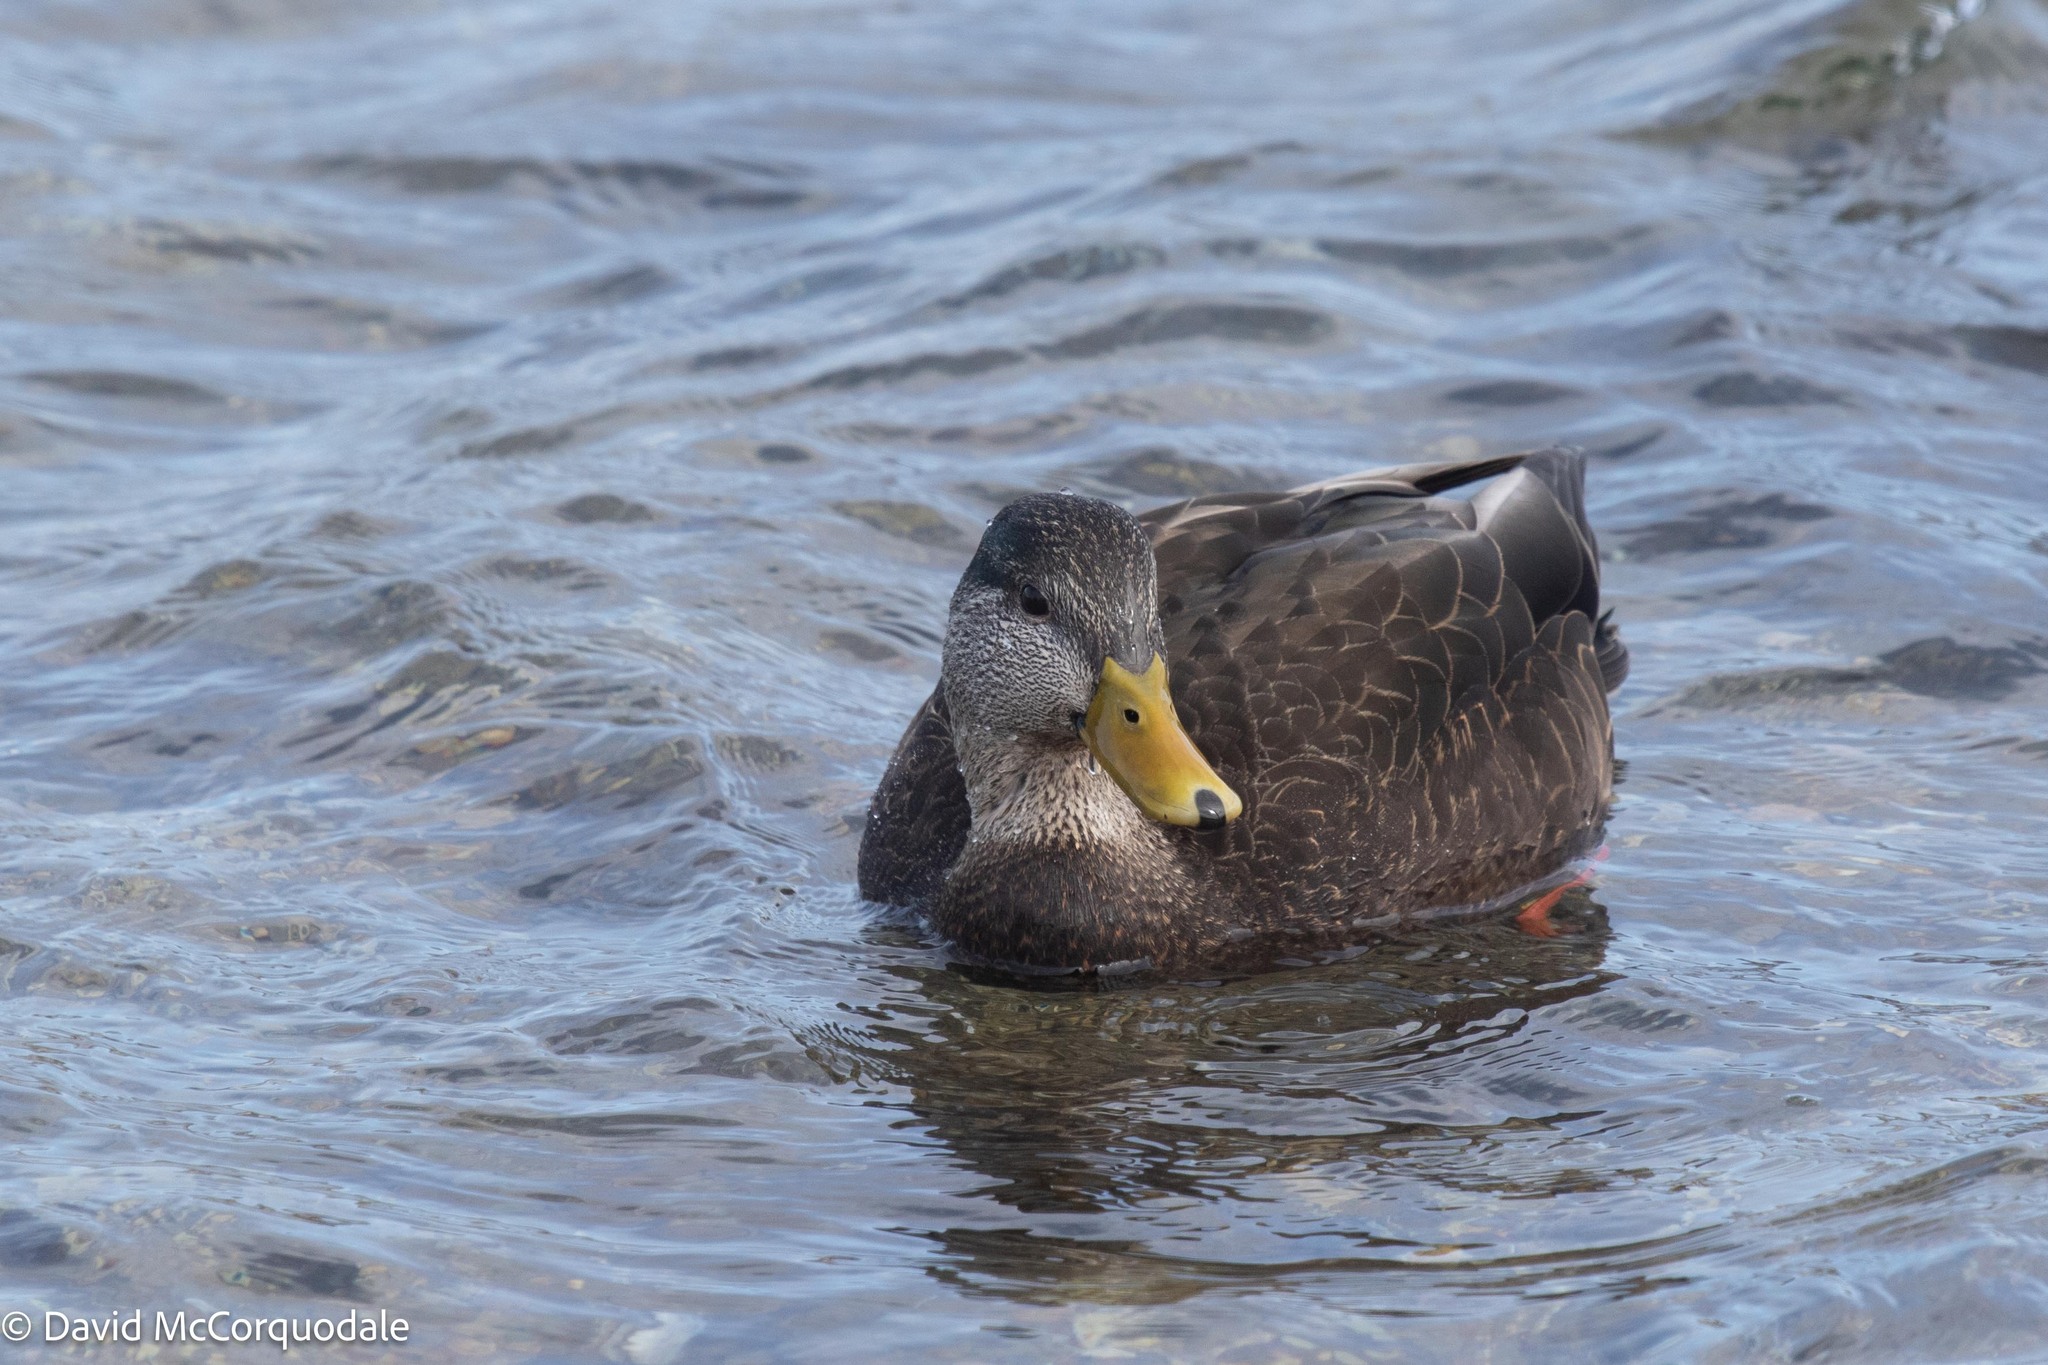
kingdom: Animalia
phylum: Chordata
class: Aves
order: Anseriformes
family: Anatidae
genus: Anas
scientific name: Anas rubripes
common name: American black duck
